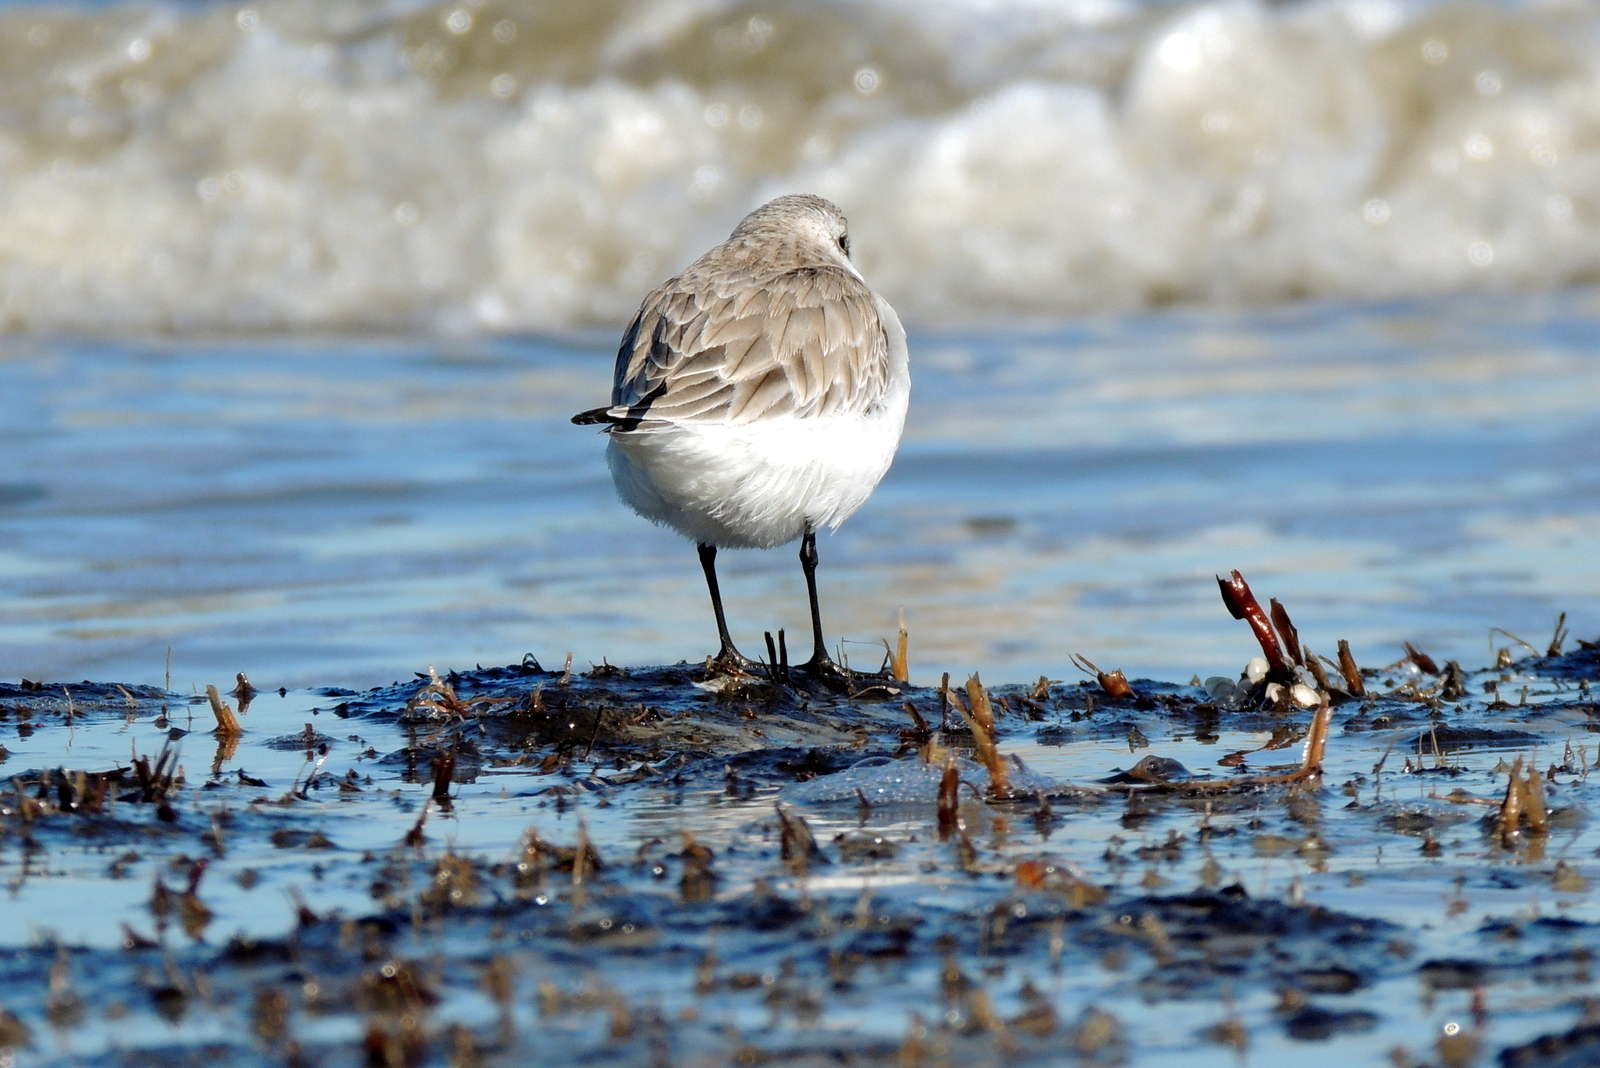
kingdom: Animalia
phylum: Chordata
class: Aves
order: Charadriiformes
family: Scolopacidae
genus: Calidris
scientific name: Calidris alba
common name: Sanderling
